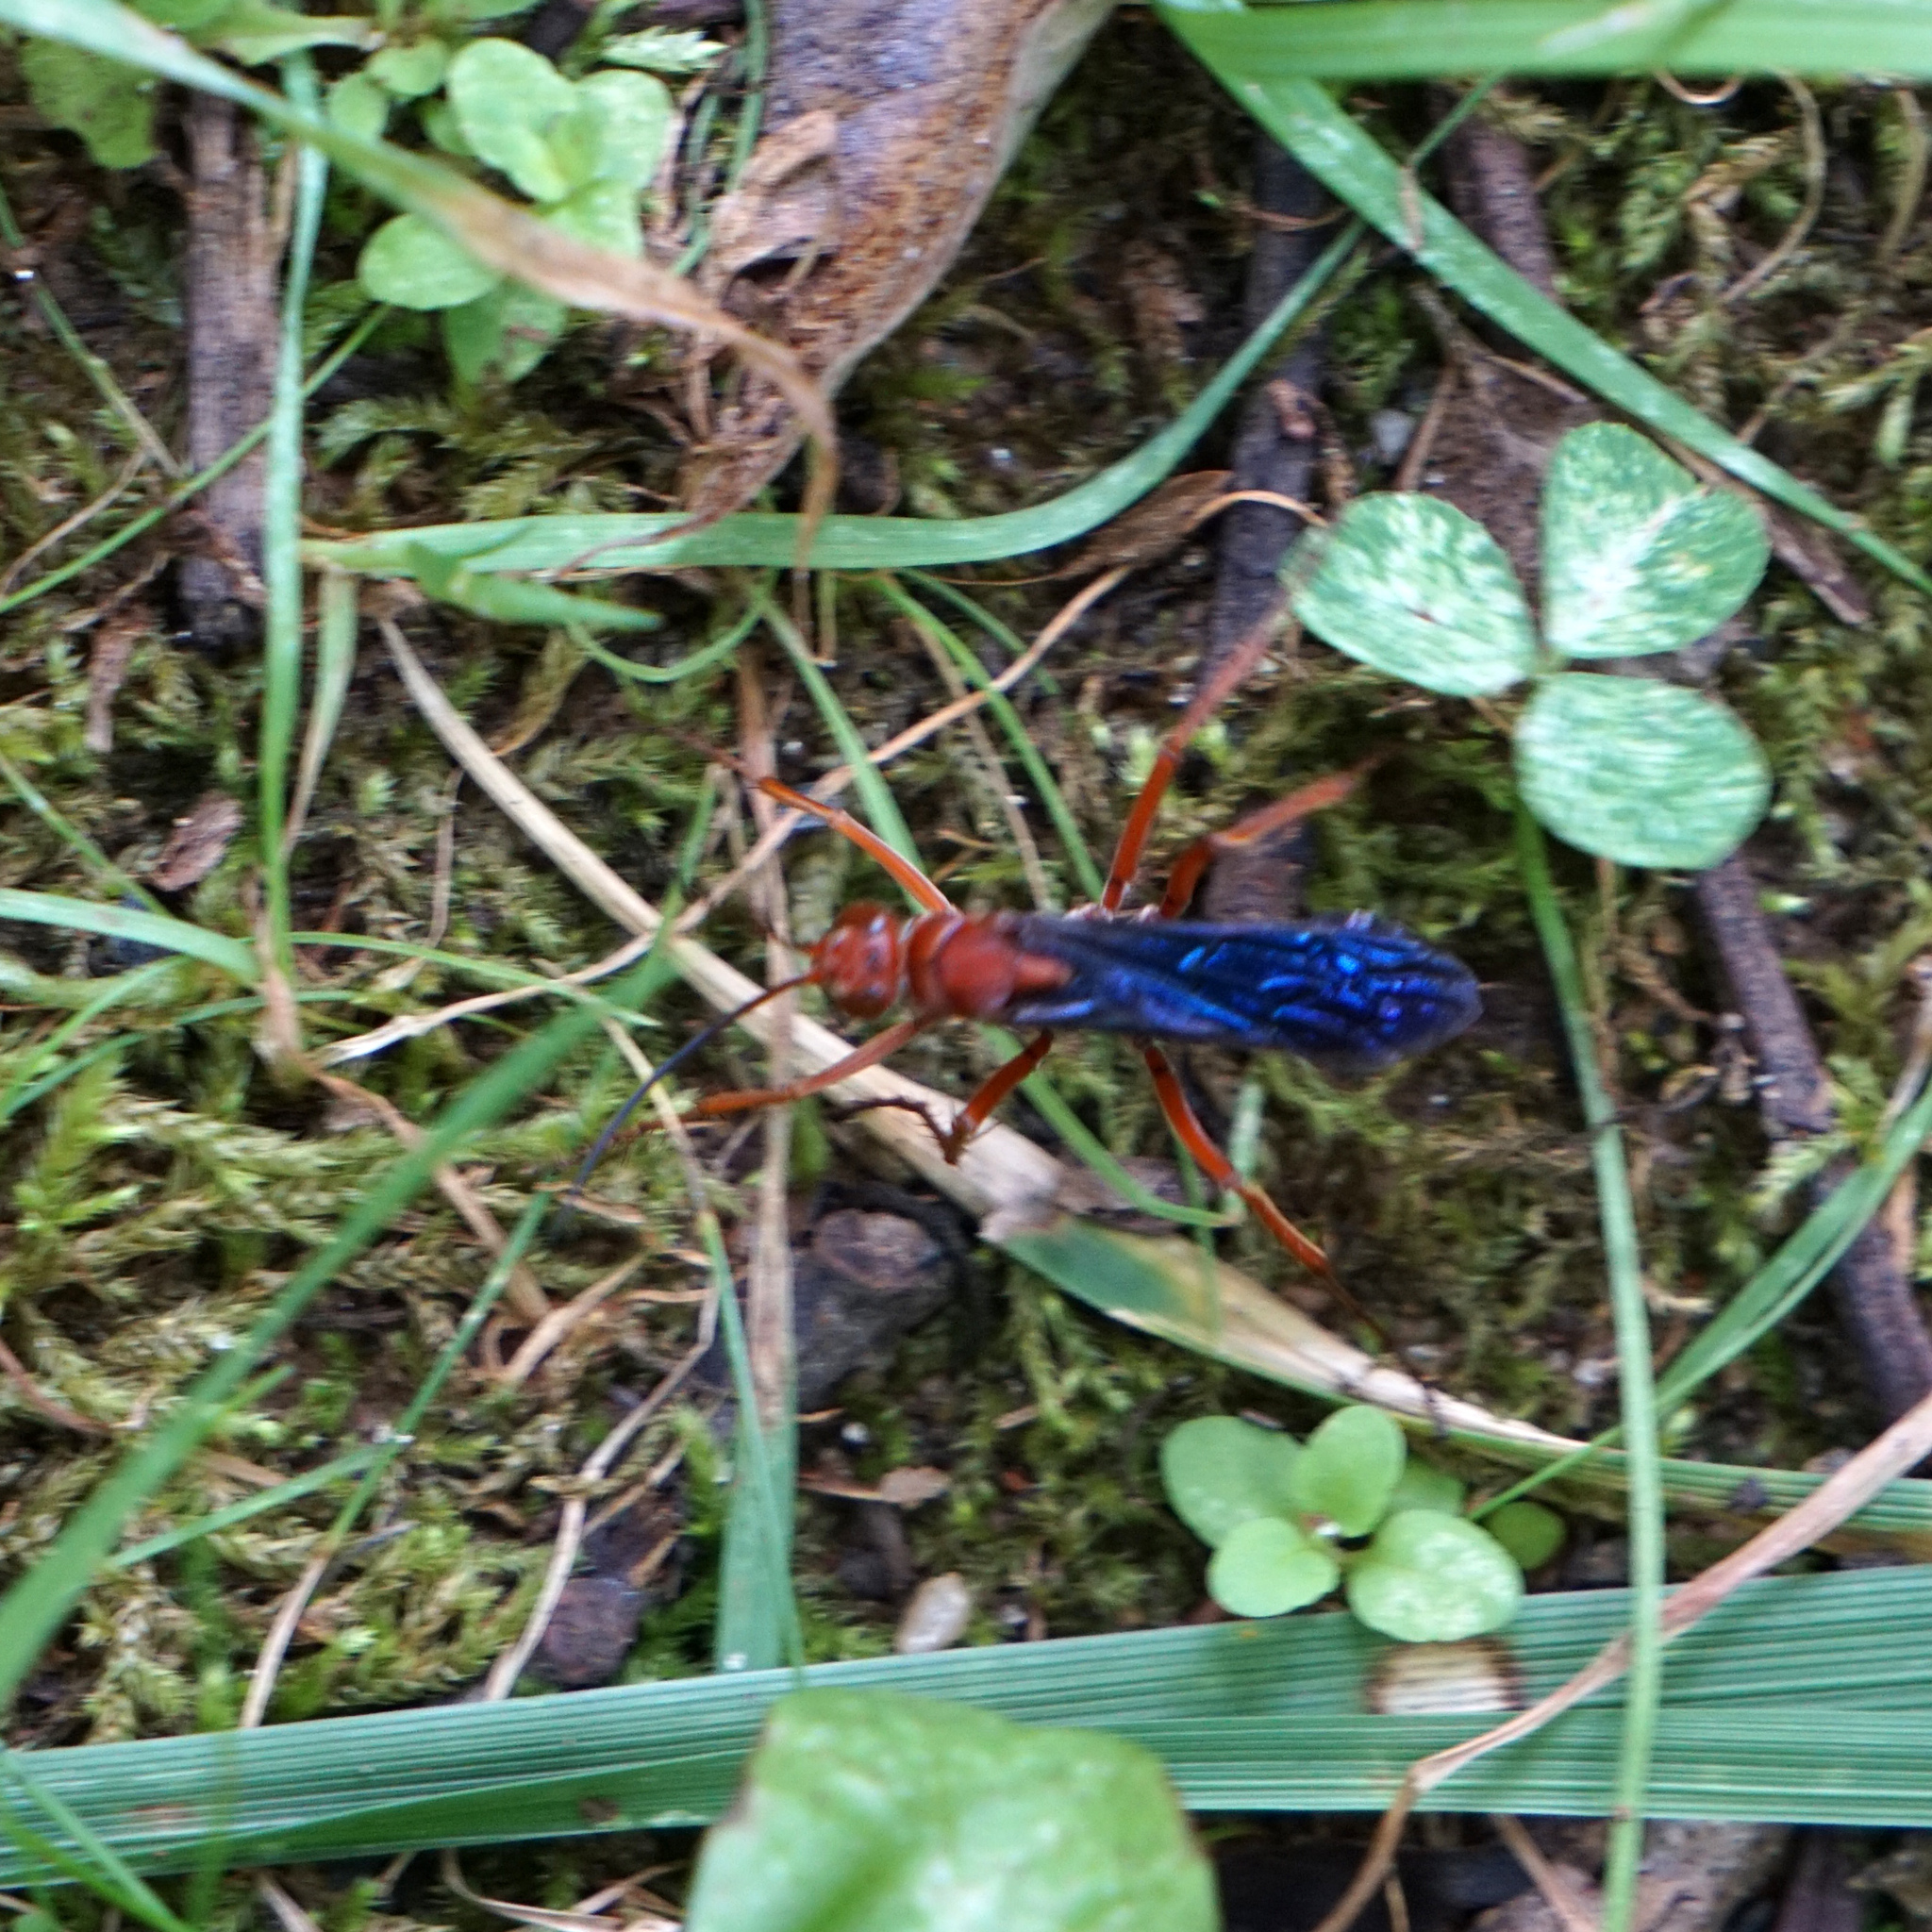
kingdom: Animalia
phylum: Arthropoda
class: Insecta
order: Hymenoptera
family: Pompilidae
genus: Tachypompilus
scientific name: Tachypompilus ferrugineus
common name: Rusty spider wasp
